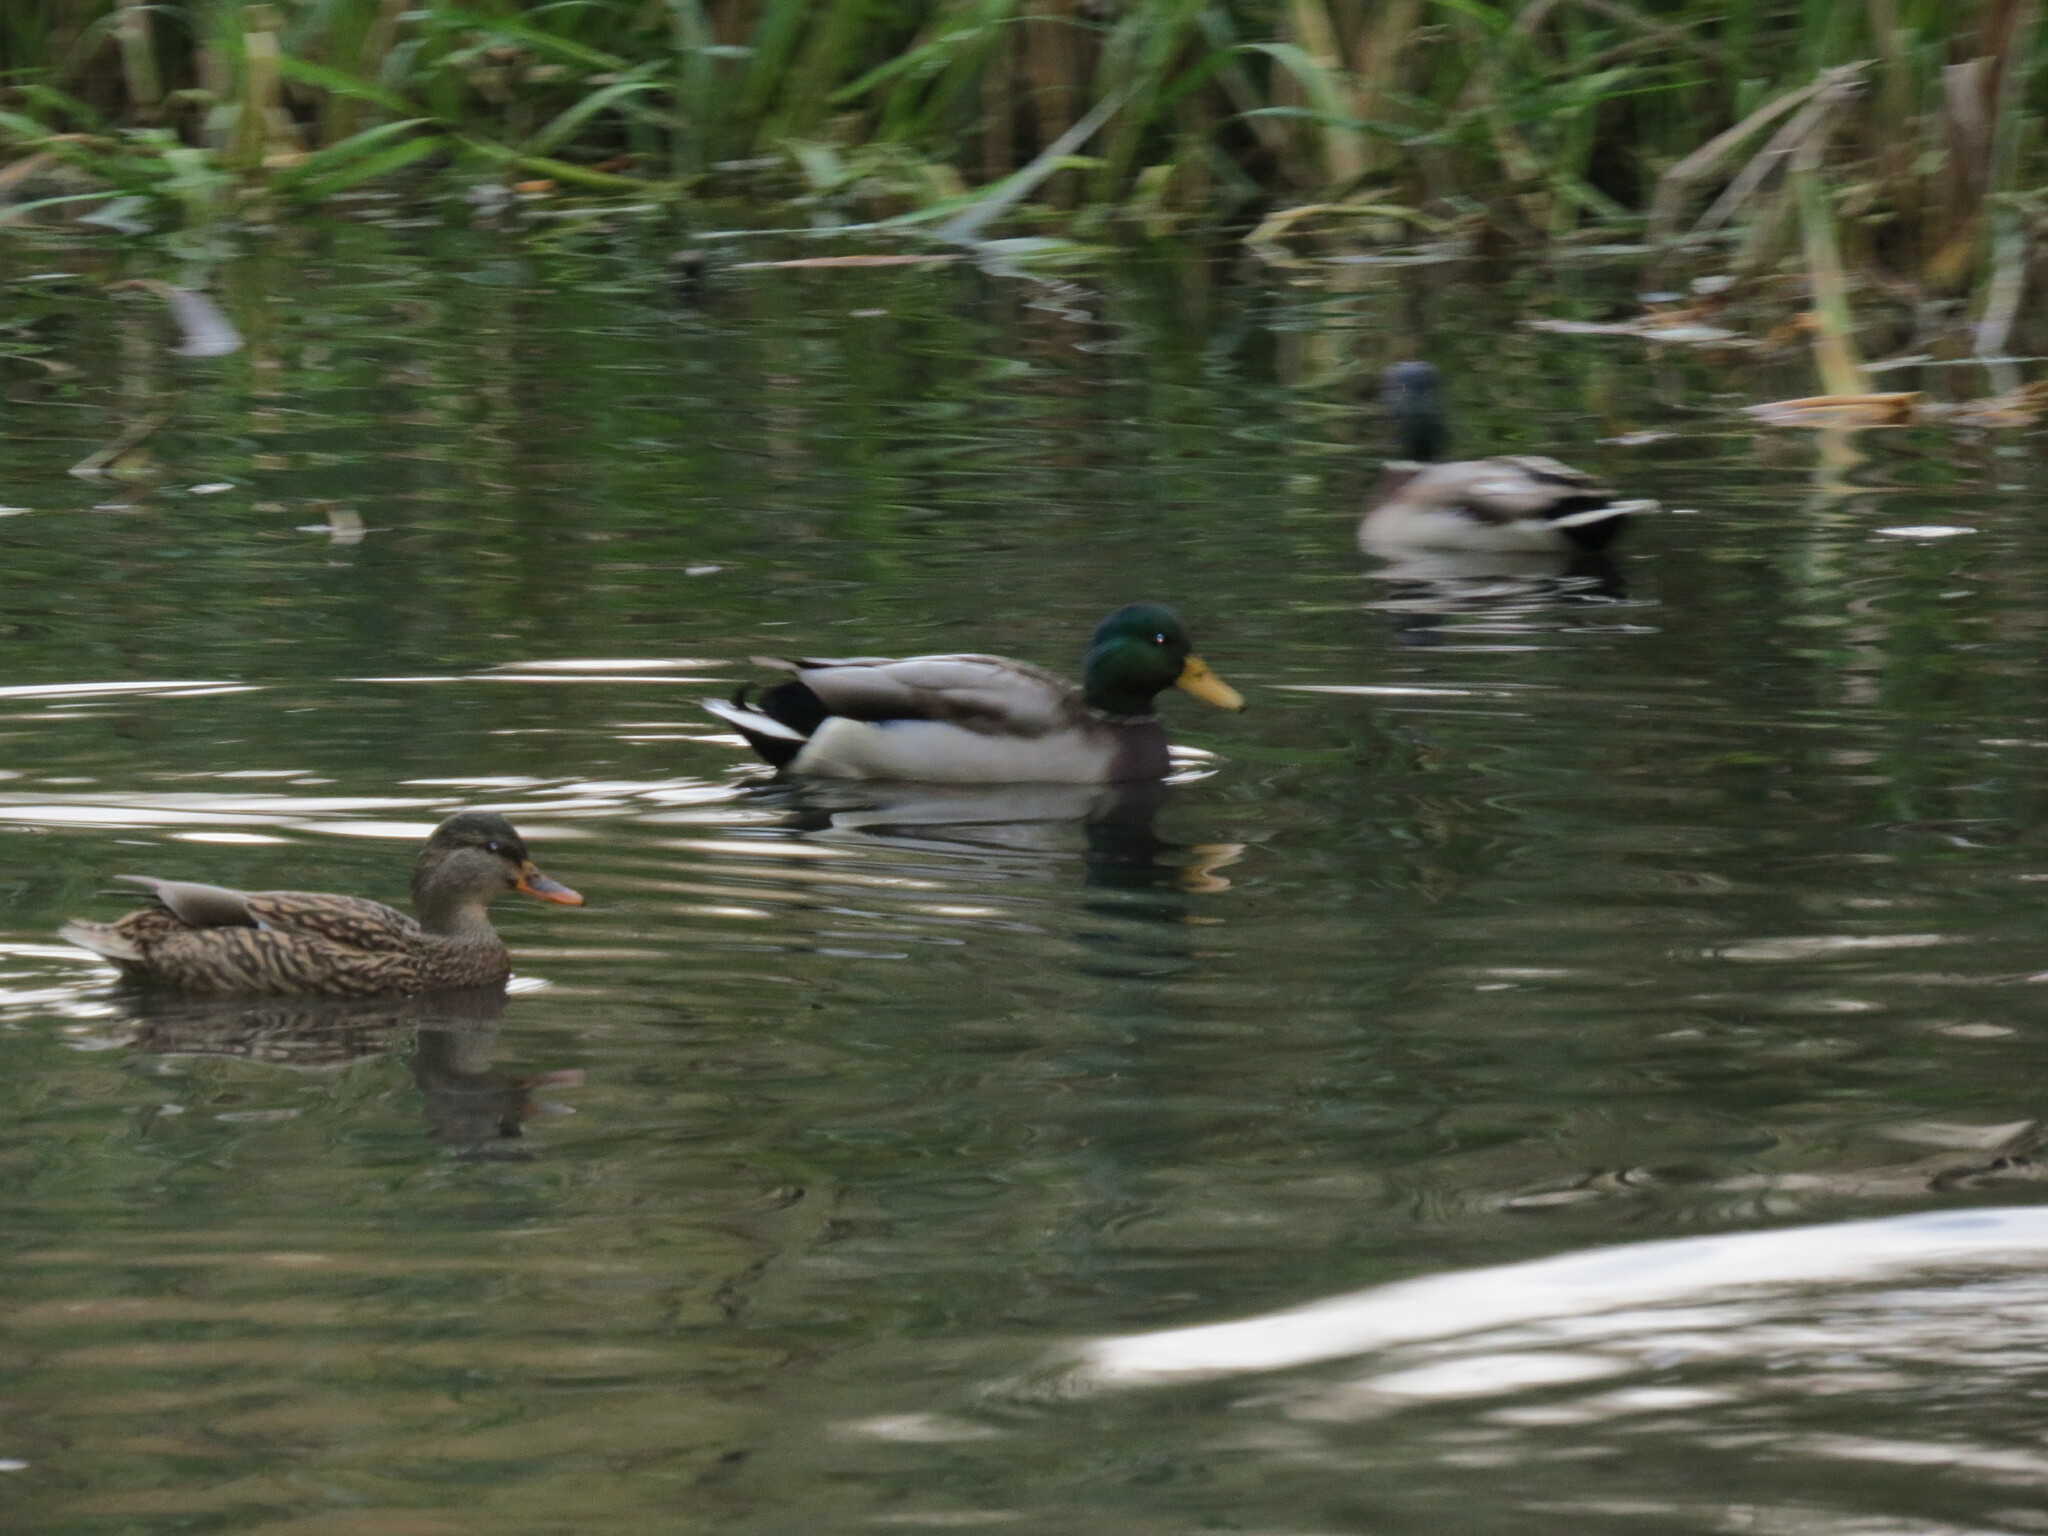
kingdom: Animalia
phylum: Chordata
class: Aves
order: Anseriformes
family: Anatidae
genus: Anas
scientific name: Anas platyrhynchos
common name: Mallard
